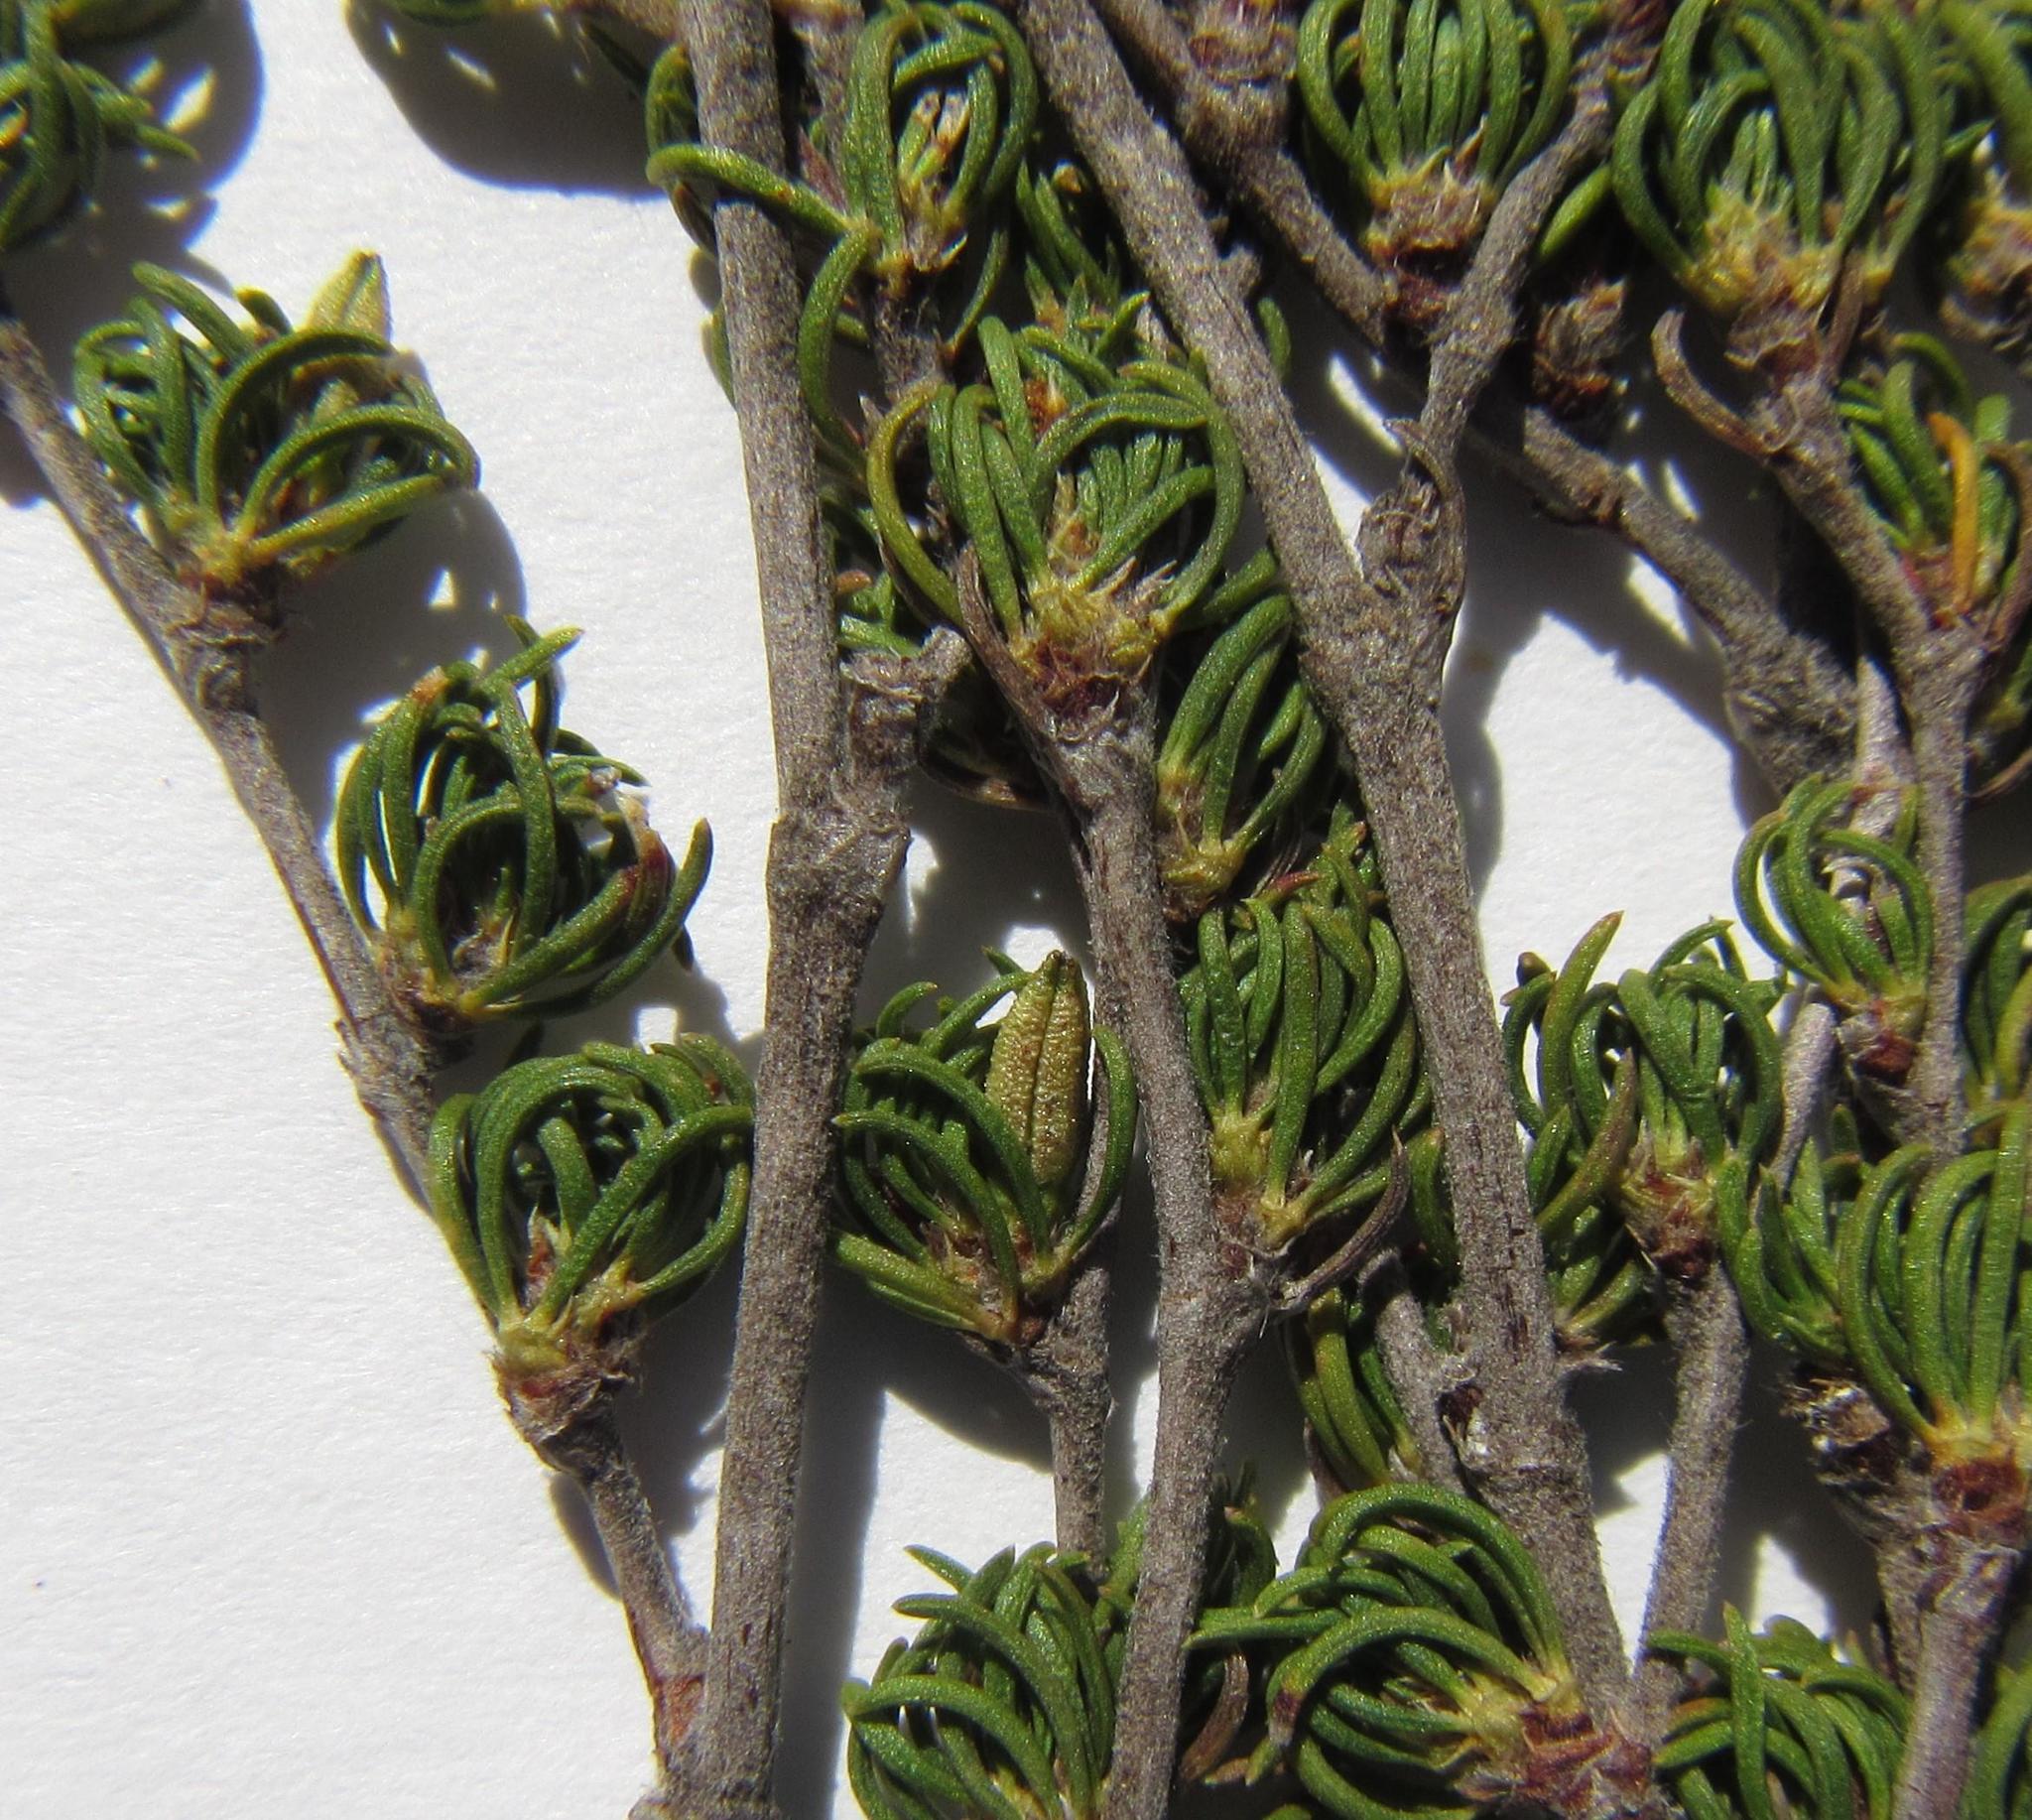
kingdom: Plantae
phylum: Tracheophyta
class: Magnoliopsida
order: Rosales
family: Rosaceae
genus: Cliffortia
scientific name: Cliffortia cruciata
